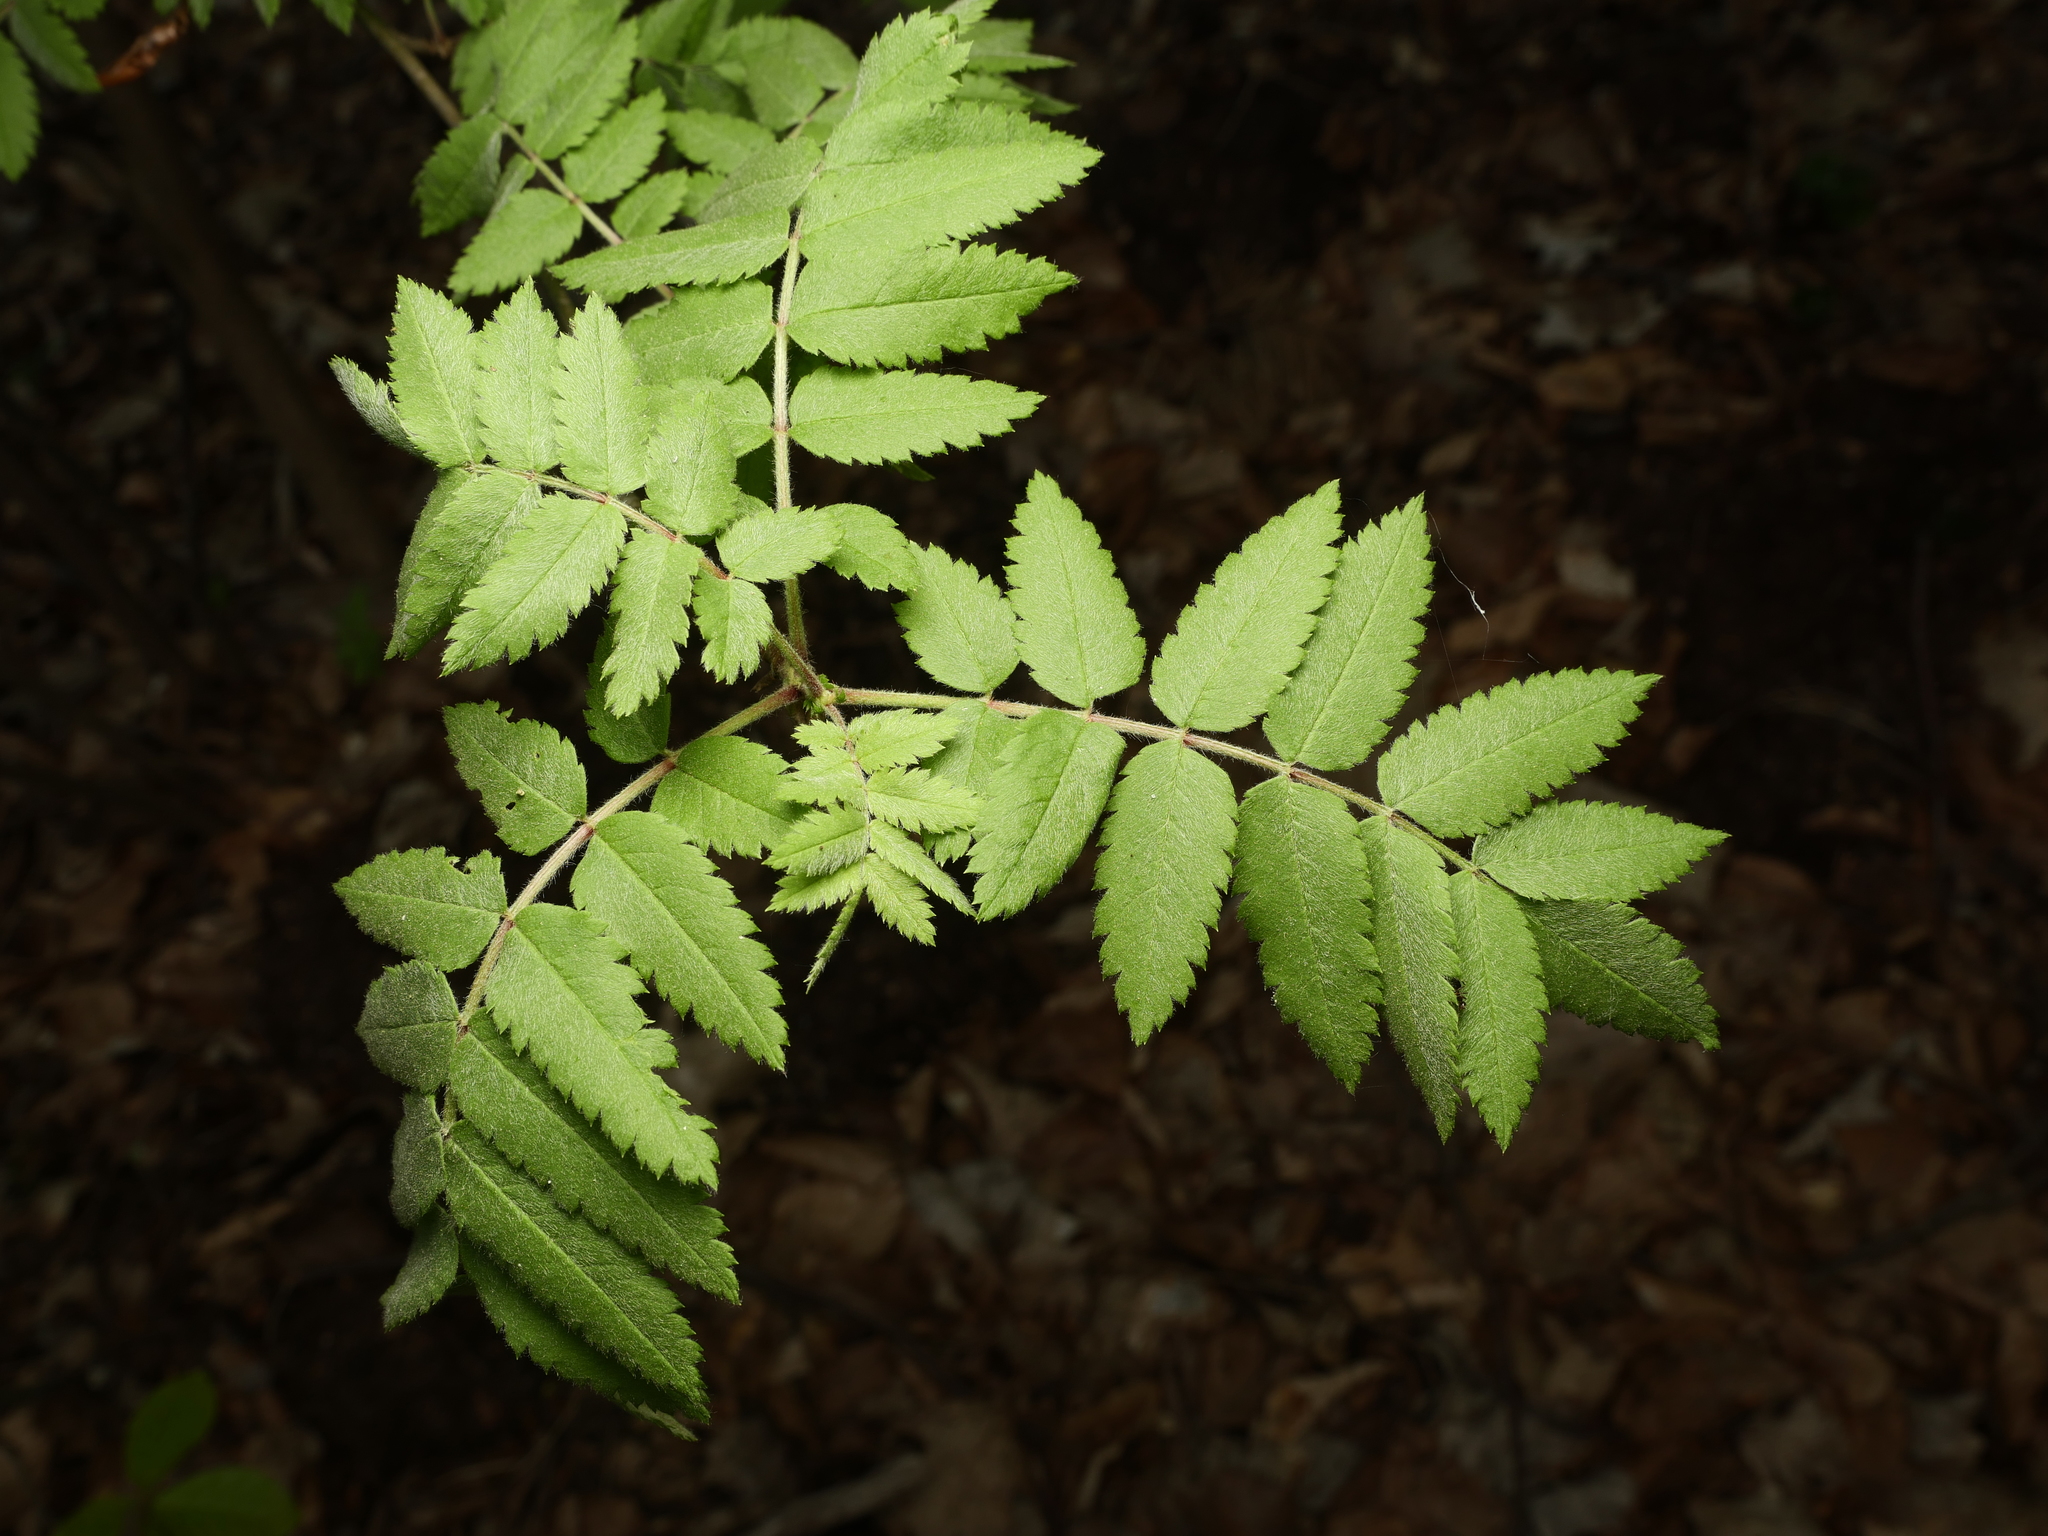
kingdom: Plantae
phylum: Tracheophyta
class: Magnoliopsida
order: Rosales
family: Rosaceae
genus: Sorbus
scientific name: Sorbus aucuparia
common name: Rowan
